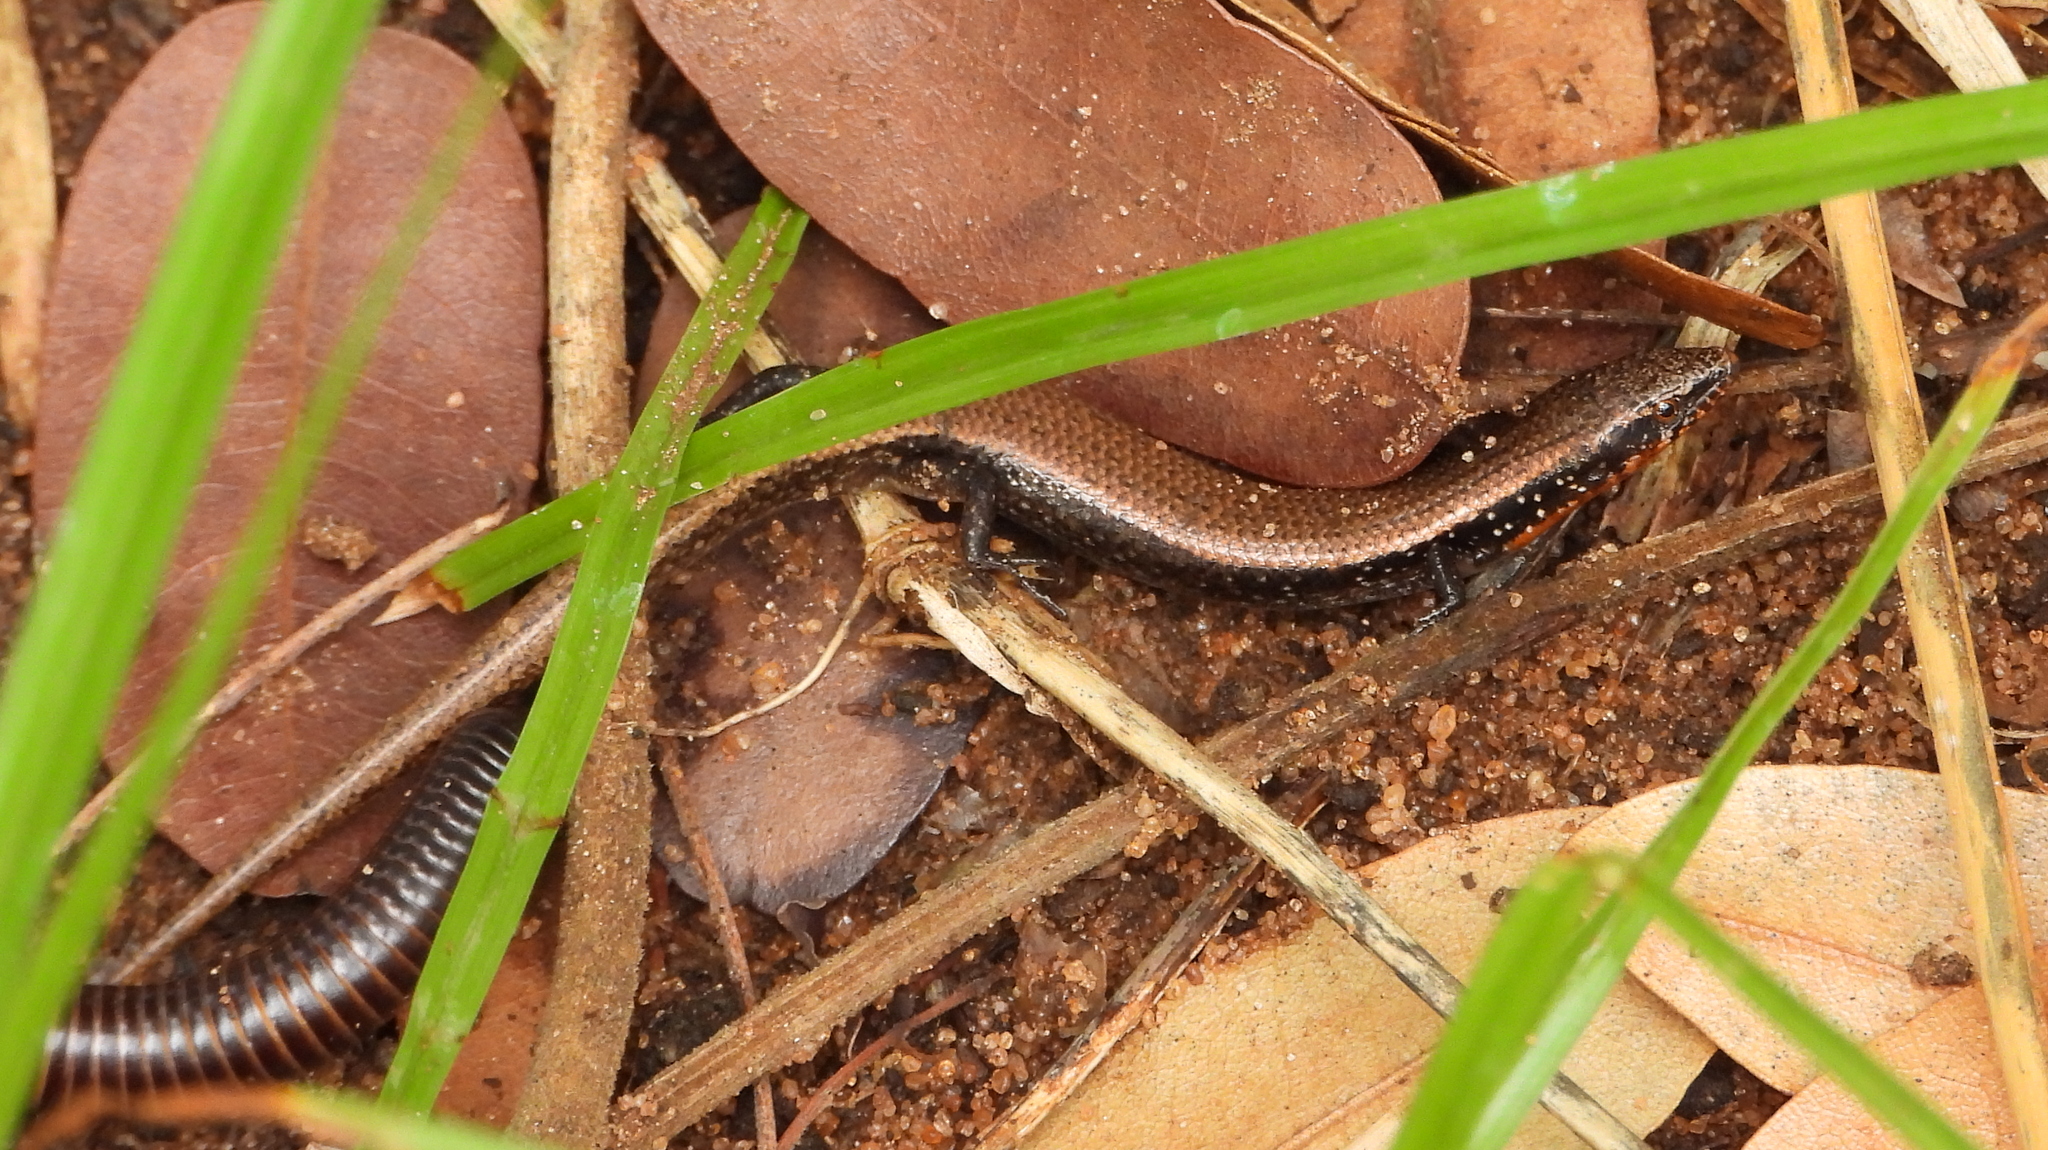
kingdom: Animalia
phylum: Chordata
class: Squamata
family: Scincidae
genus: Panaspis
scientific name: Panaspis maculicollis
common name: Spotted-neck snake-eyed skink
